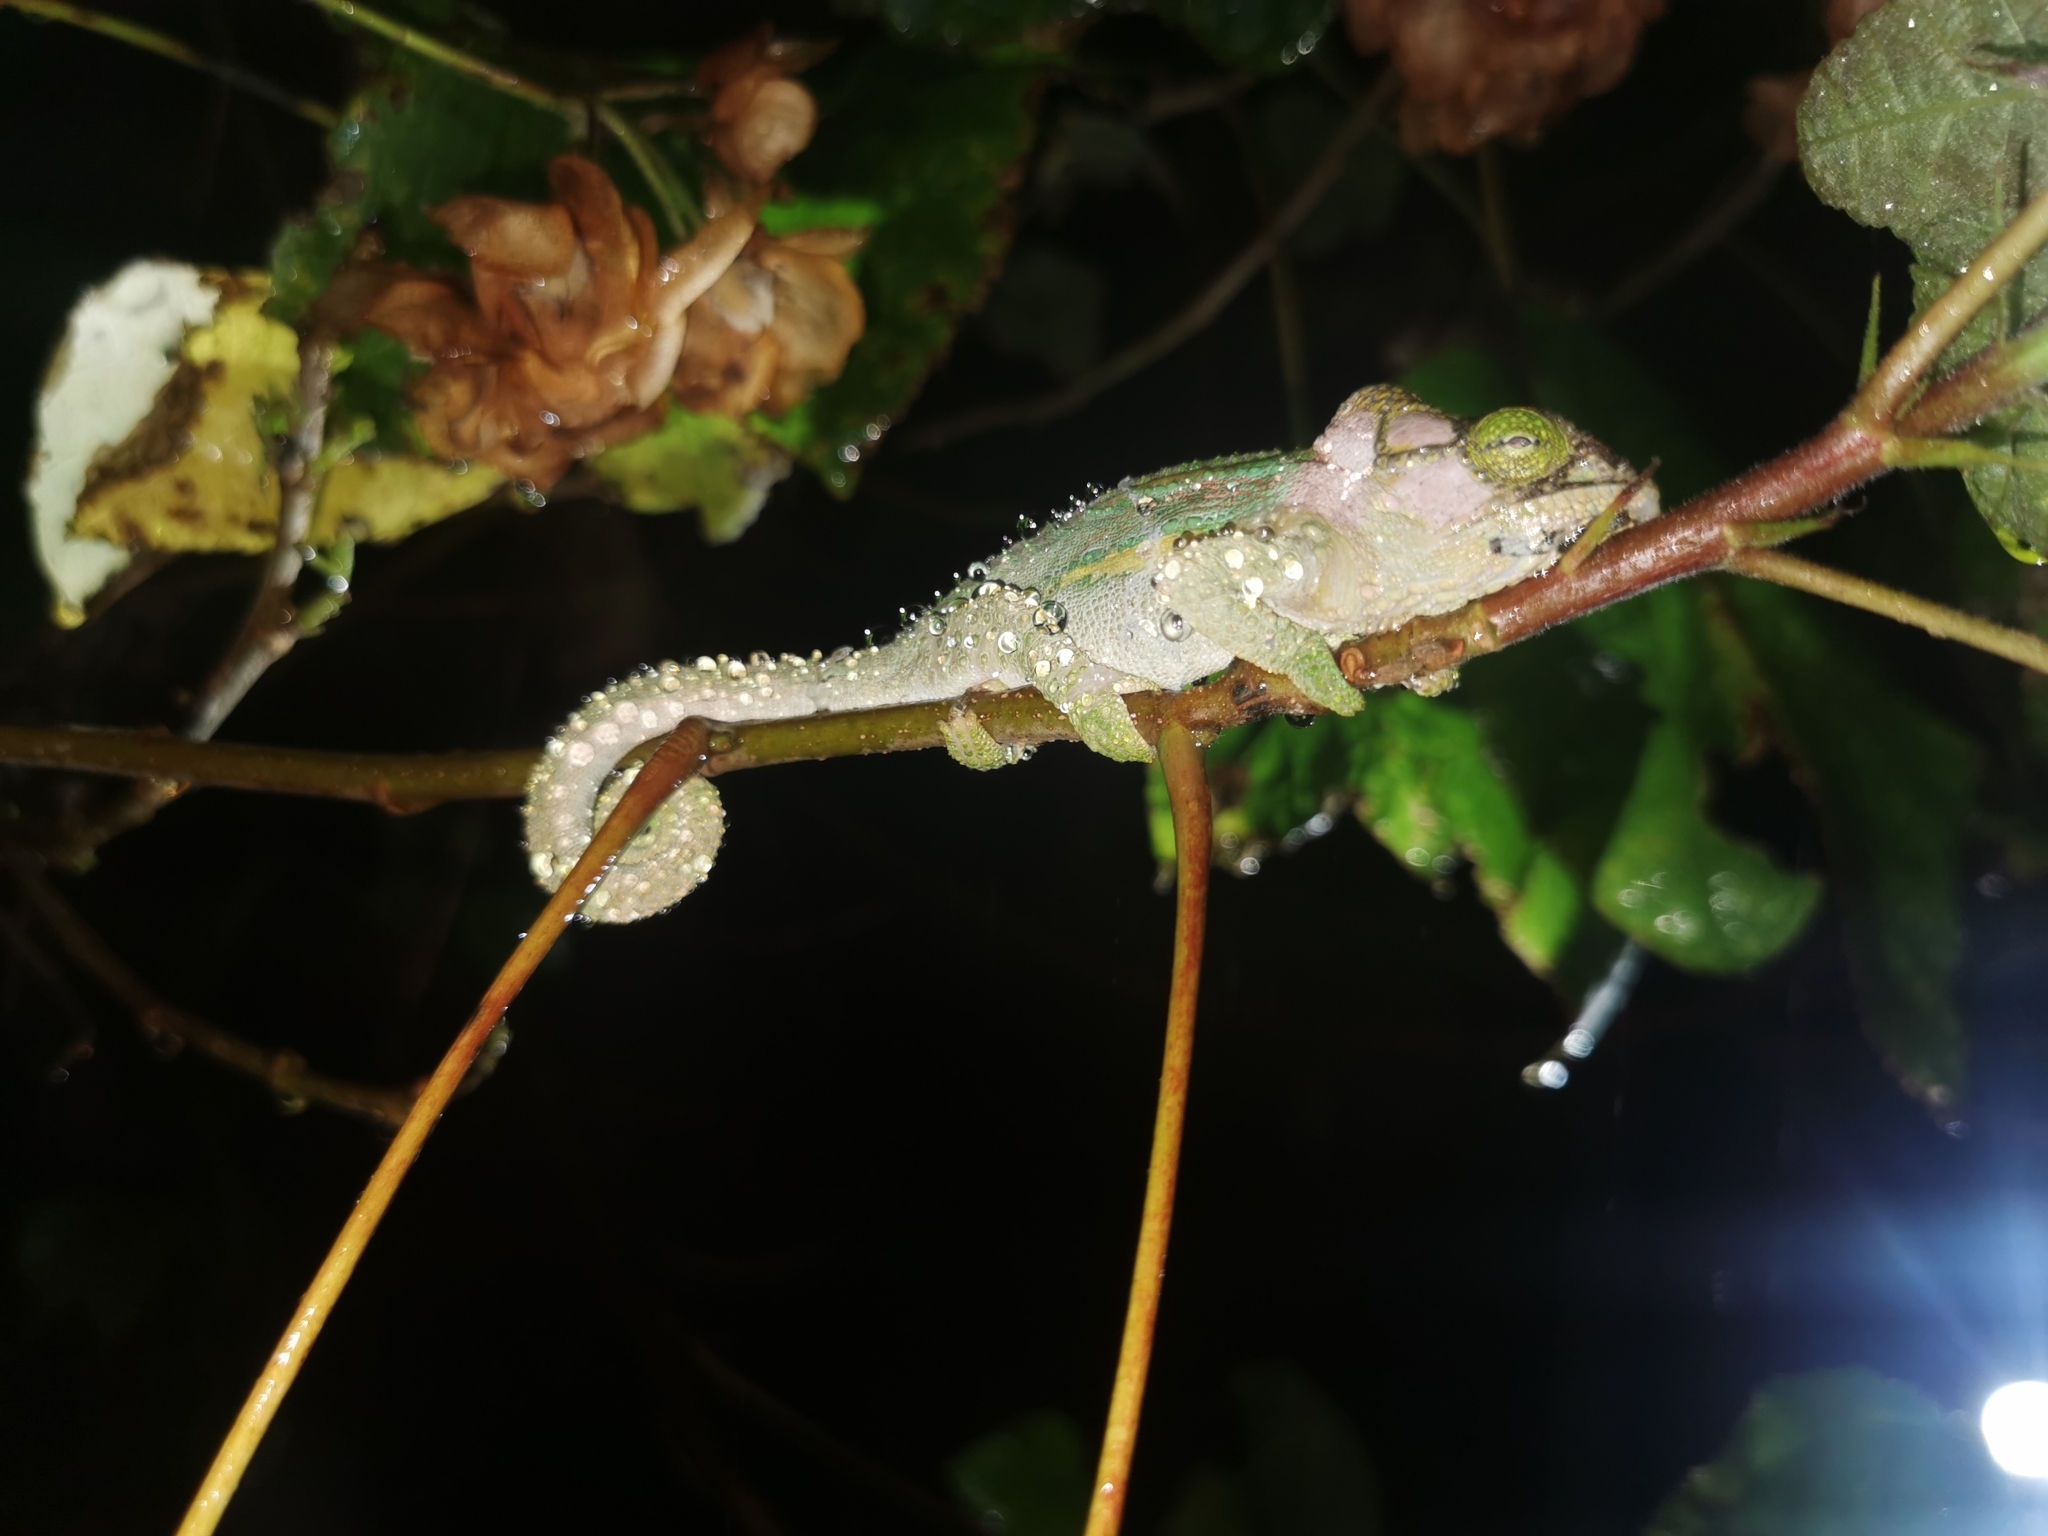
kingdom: Animalia
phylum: Chordata
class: Squamata
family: Chamaeleonidae
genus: Bradypodion
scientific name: Bradypodion damaranum
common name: Knysna dwarf chameleon
